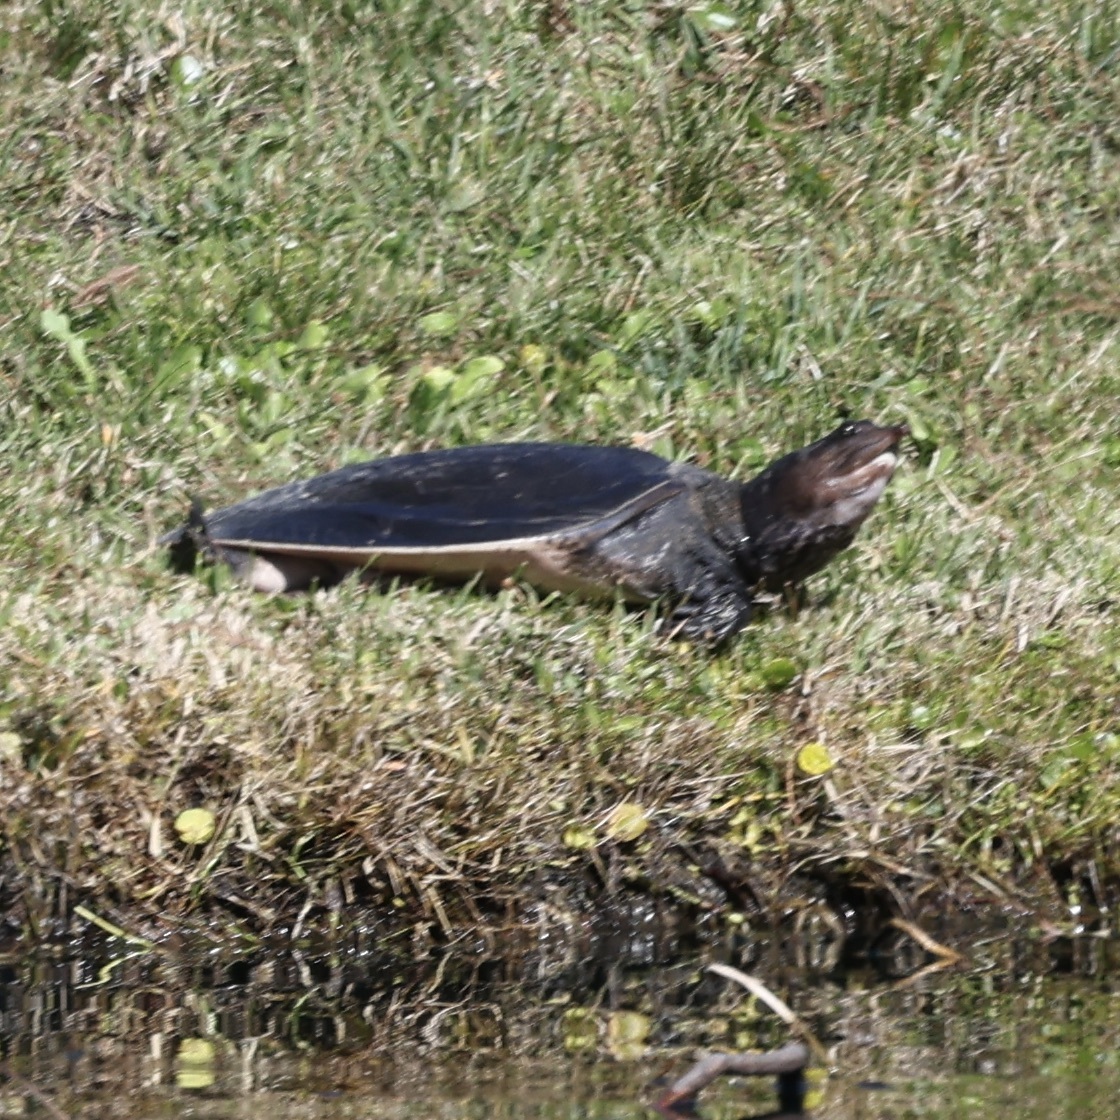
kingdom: Animalia
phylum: Chordata
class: Testudines
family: Trionychidae
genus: Apalone
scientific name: Apalone ferox
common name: Florida softshell turtle
